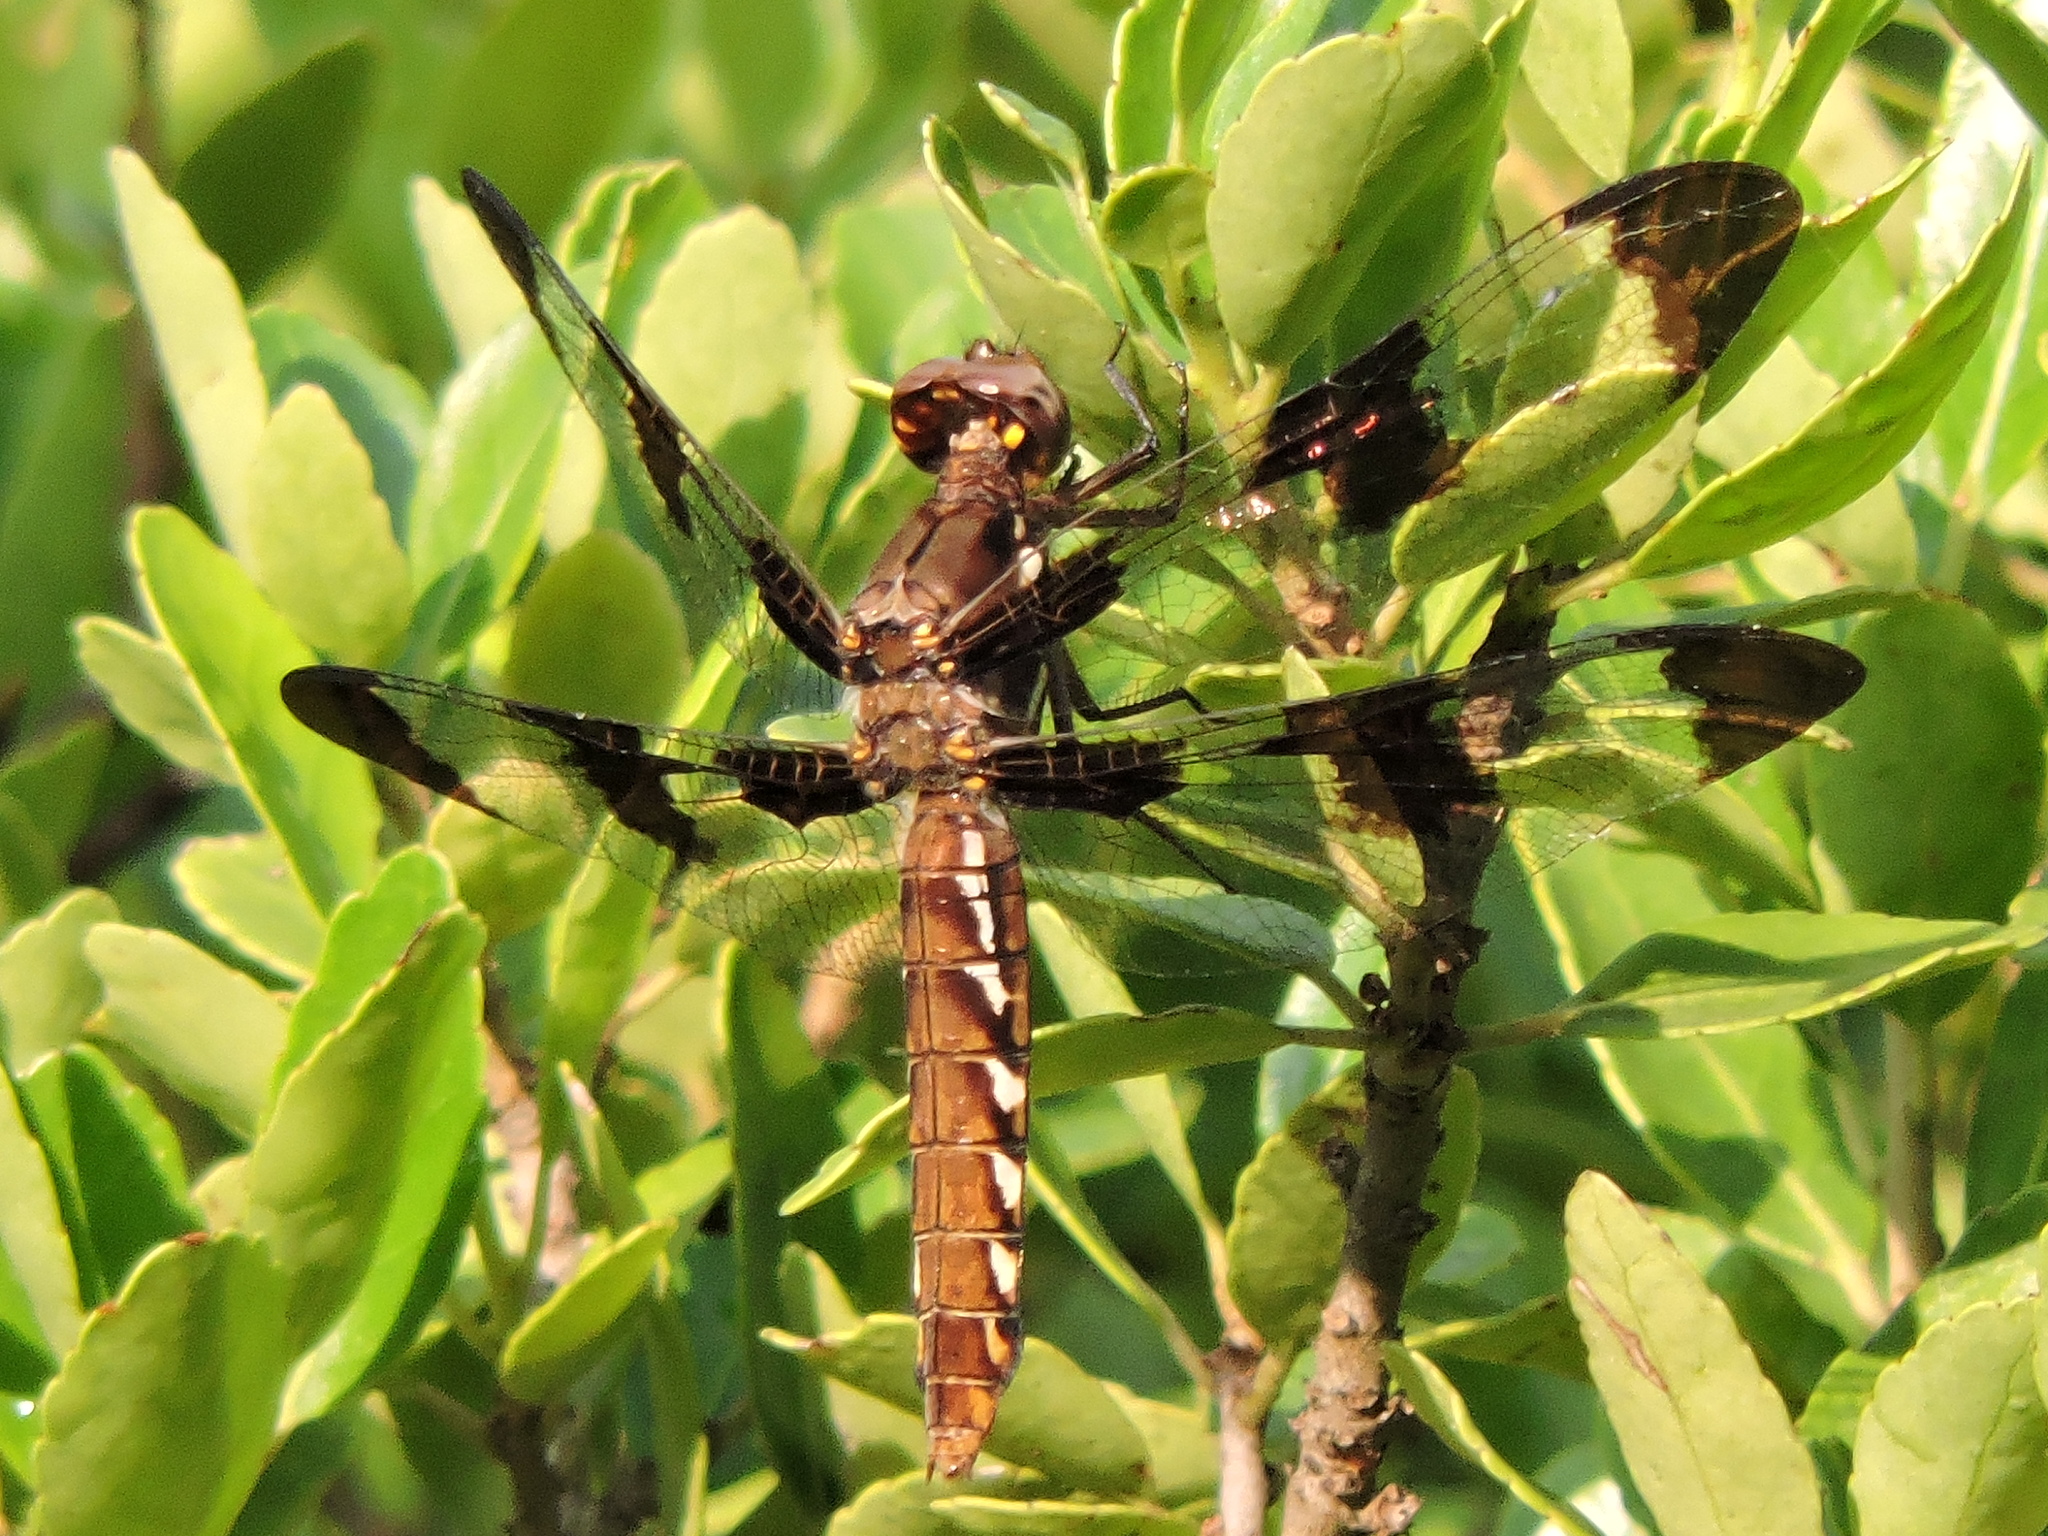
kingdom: Animalia
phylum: Arthropoda
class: Insecta
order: Odonata
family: Libellulidae
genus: Plathemis
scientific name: Plathemis lydia
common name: Common whitetail
